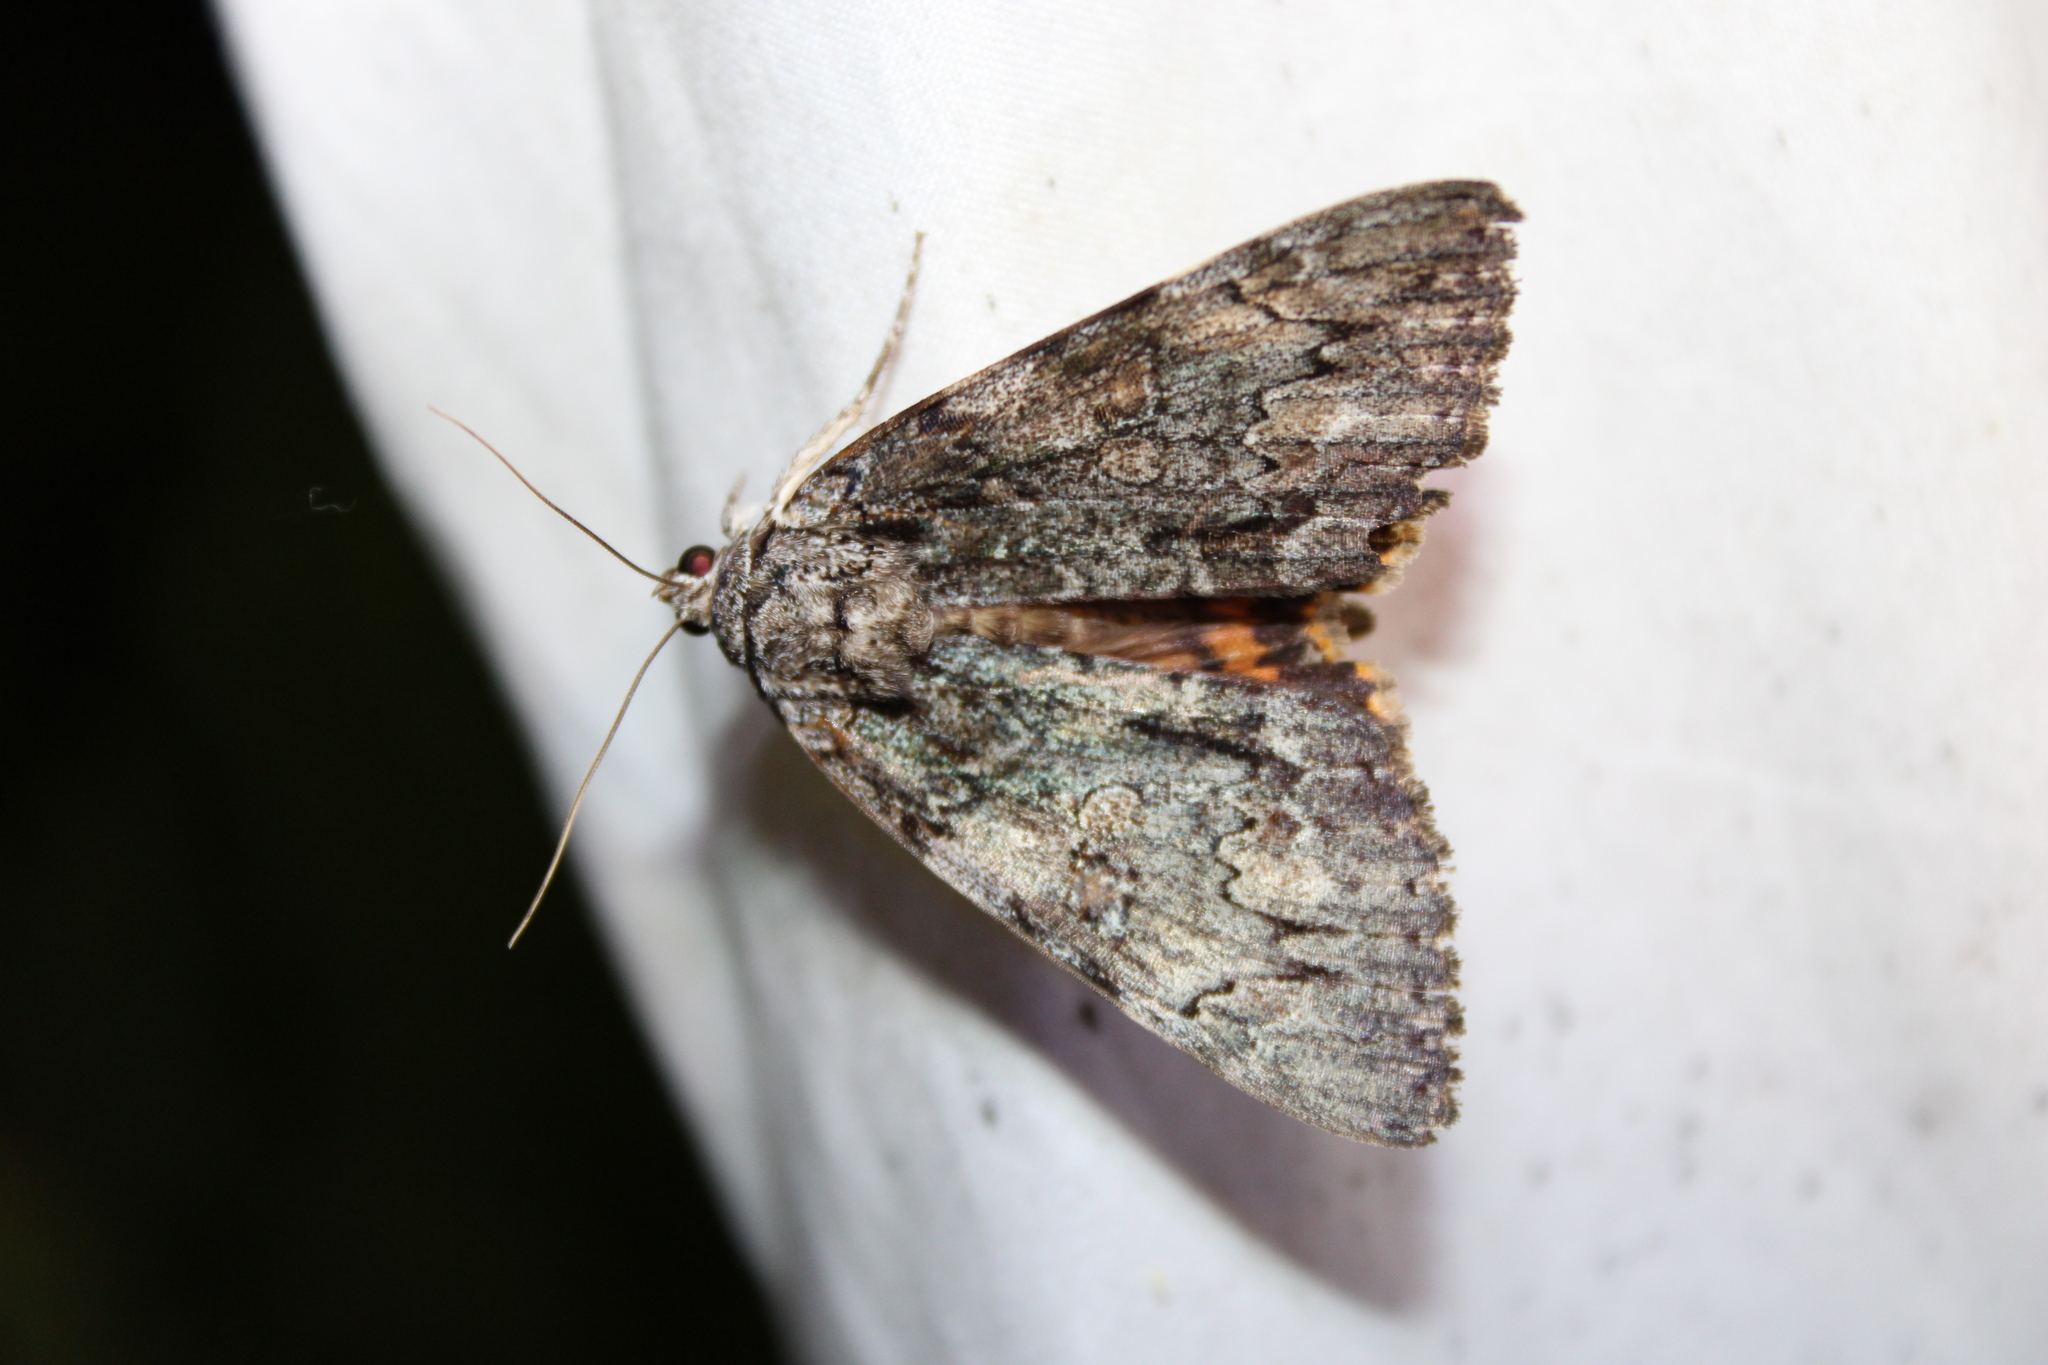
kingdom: Animalia
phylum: Arthropoda
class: Insecta
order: Lepidoptera
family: Erebidae
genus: Catocala
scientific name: Catocala palaeogama
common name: Oldwife underwing
